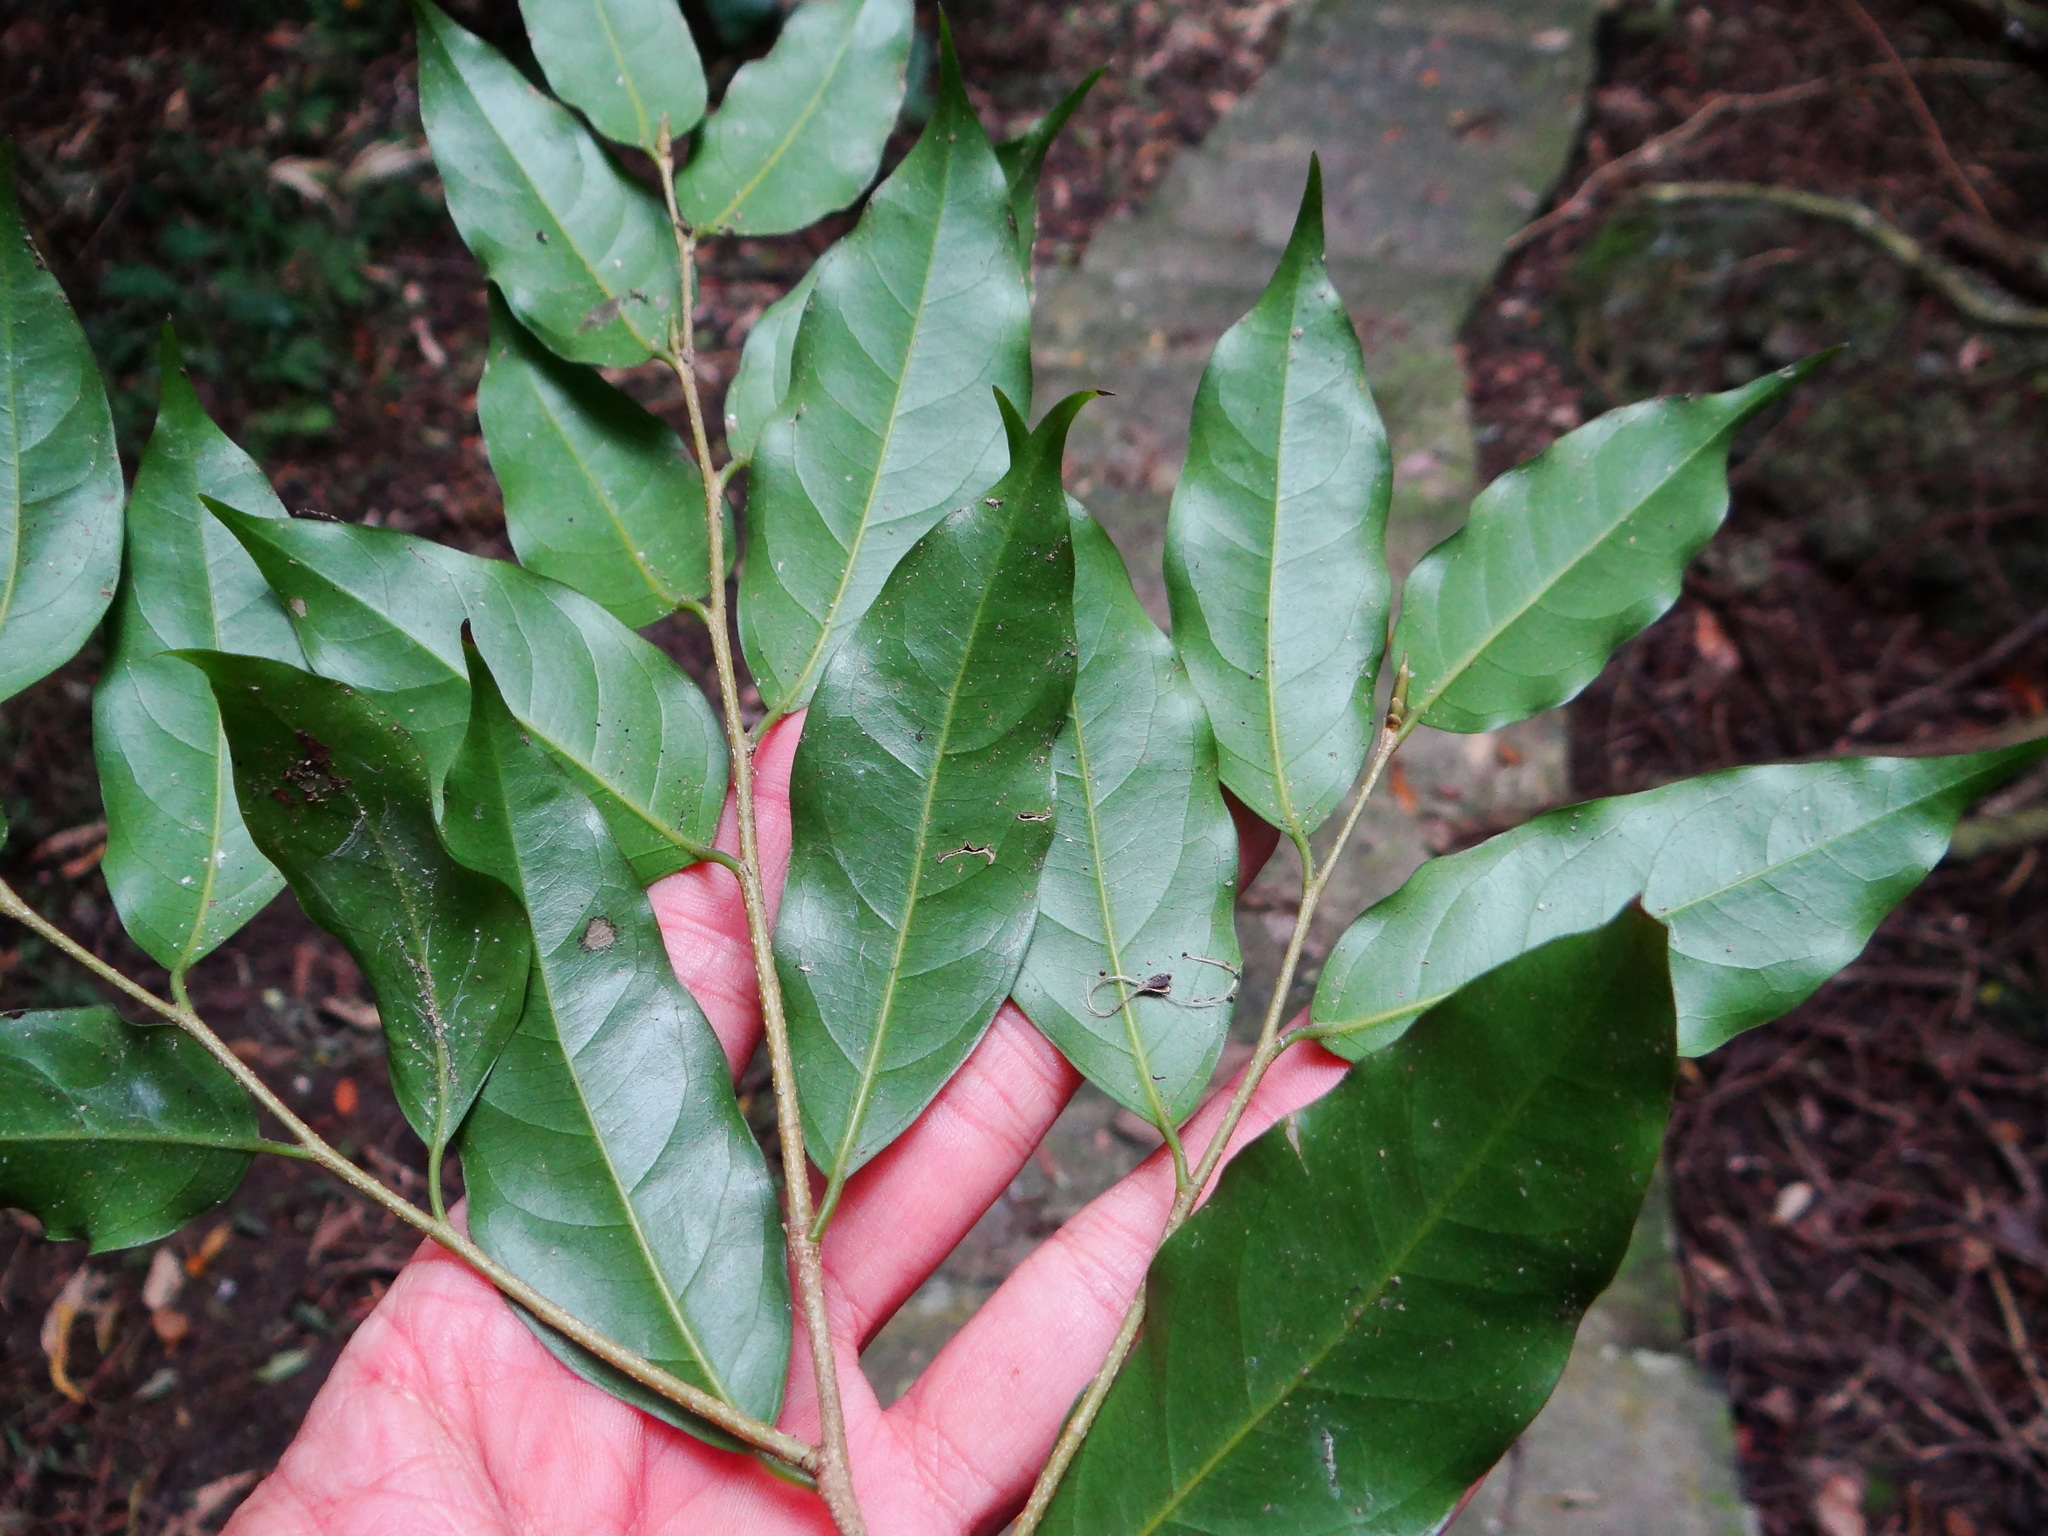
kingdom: Plantae
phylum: Tracheophyta
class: Magnoliopsida
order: Malpighiales
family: Putranjivaceae
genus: Drypetes
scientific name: Drypetes indica
